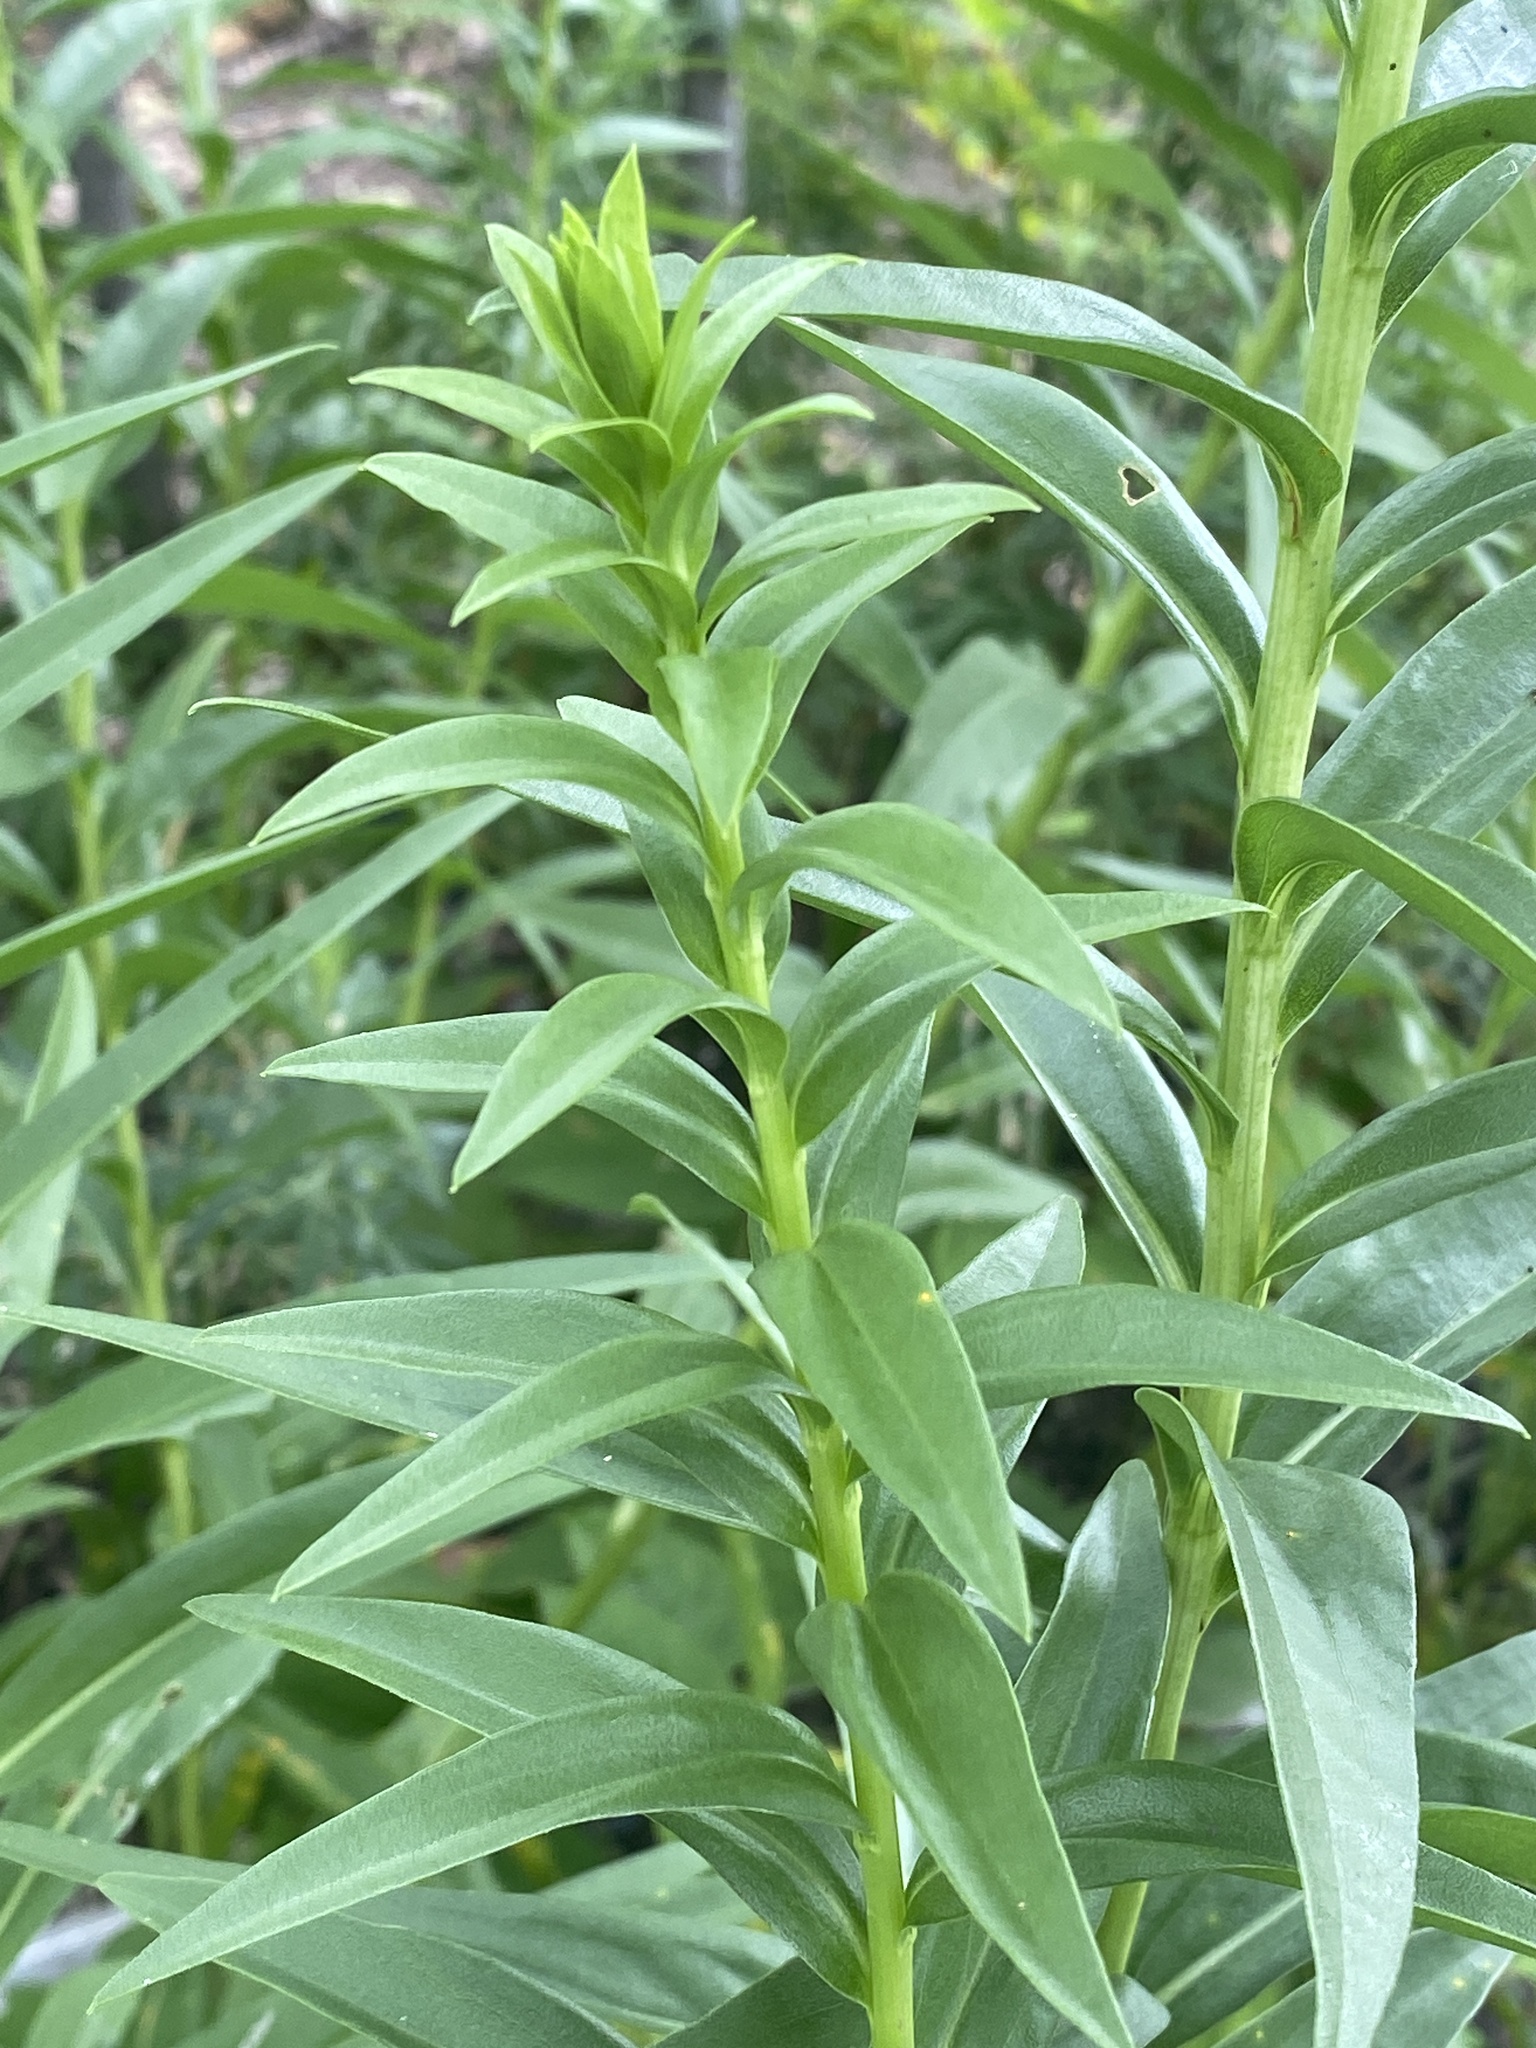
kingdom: Plantae
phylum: Tracheophyta
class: Magnoliopsida
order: Asterales
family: Asteraceae
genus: Solidago
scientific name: Solidago sempervirens
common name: Salt-marsh goldenrod
